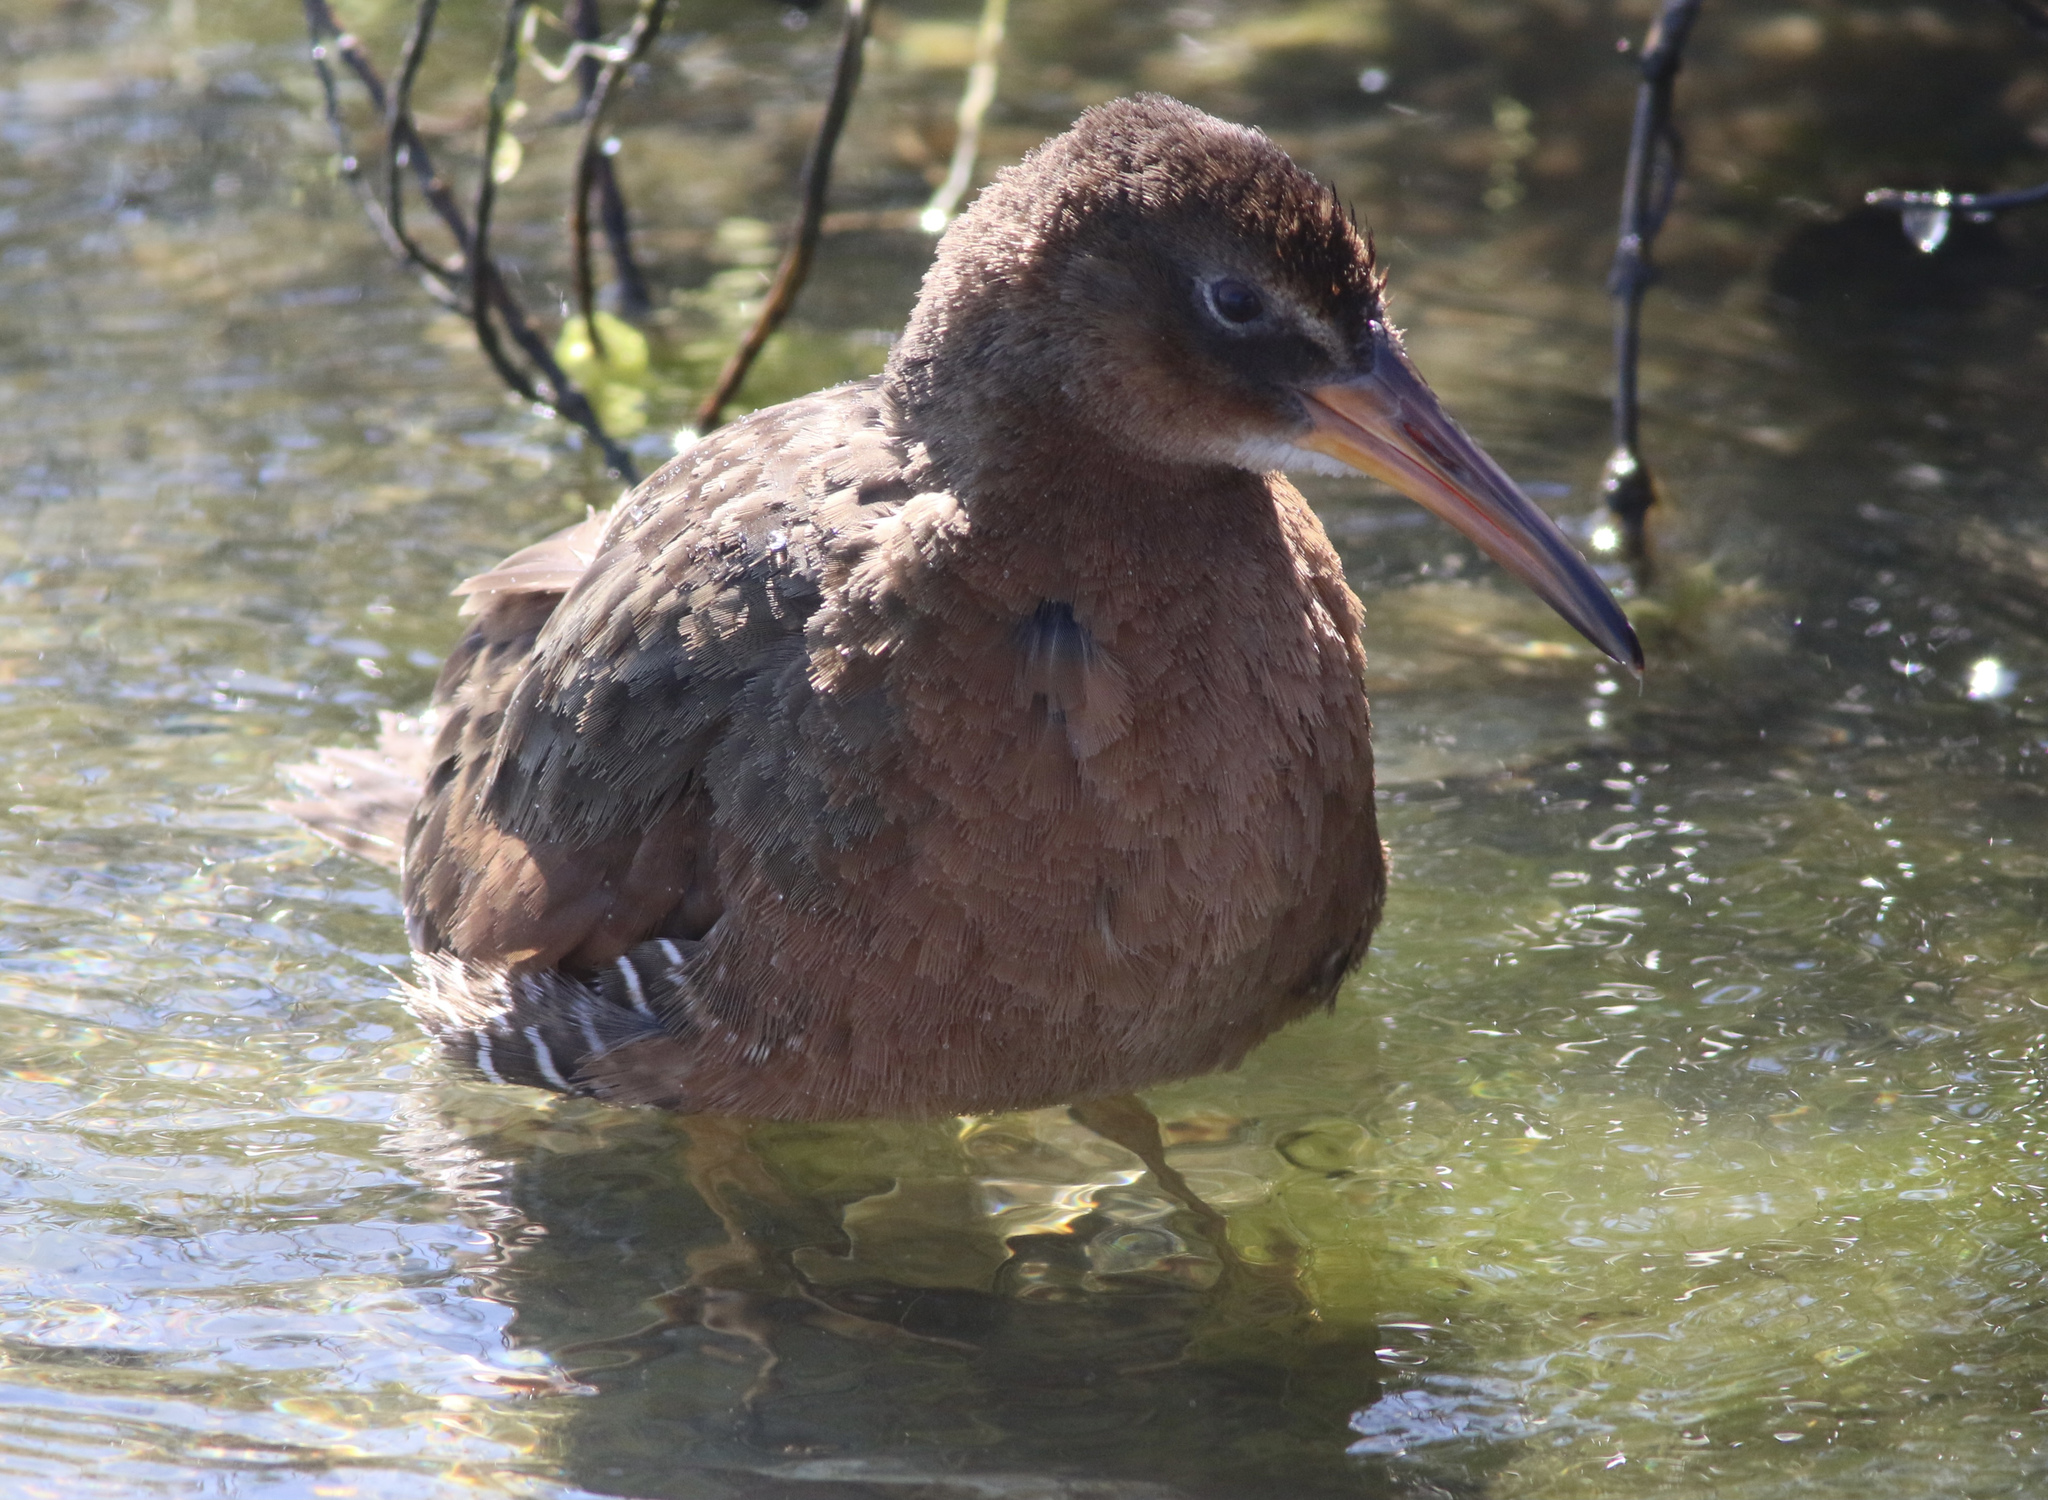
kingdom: Animalia
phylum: Chordata
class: Aves
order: Gruiformes
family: Rallidae
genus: Rallus
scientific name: Rallus obsoletus
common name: Ridgway's rail
